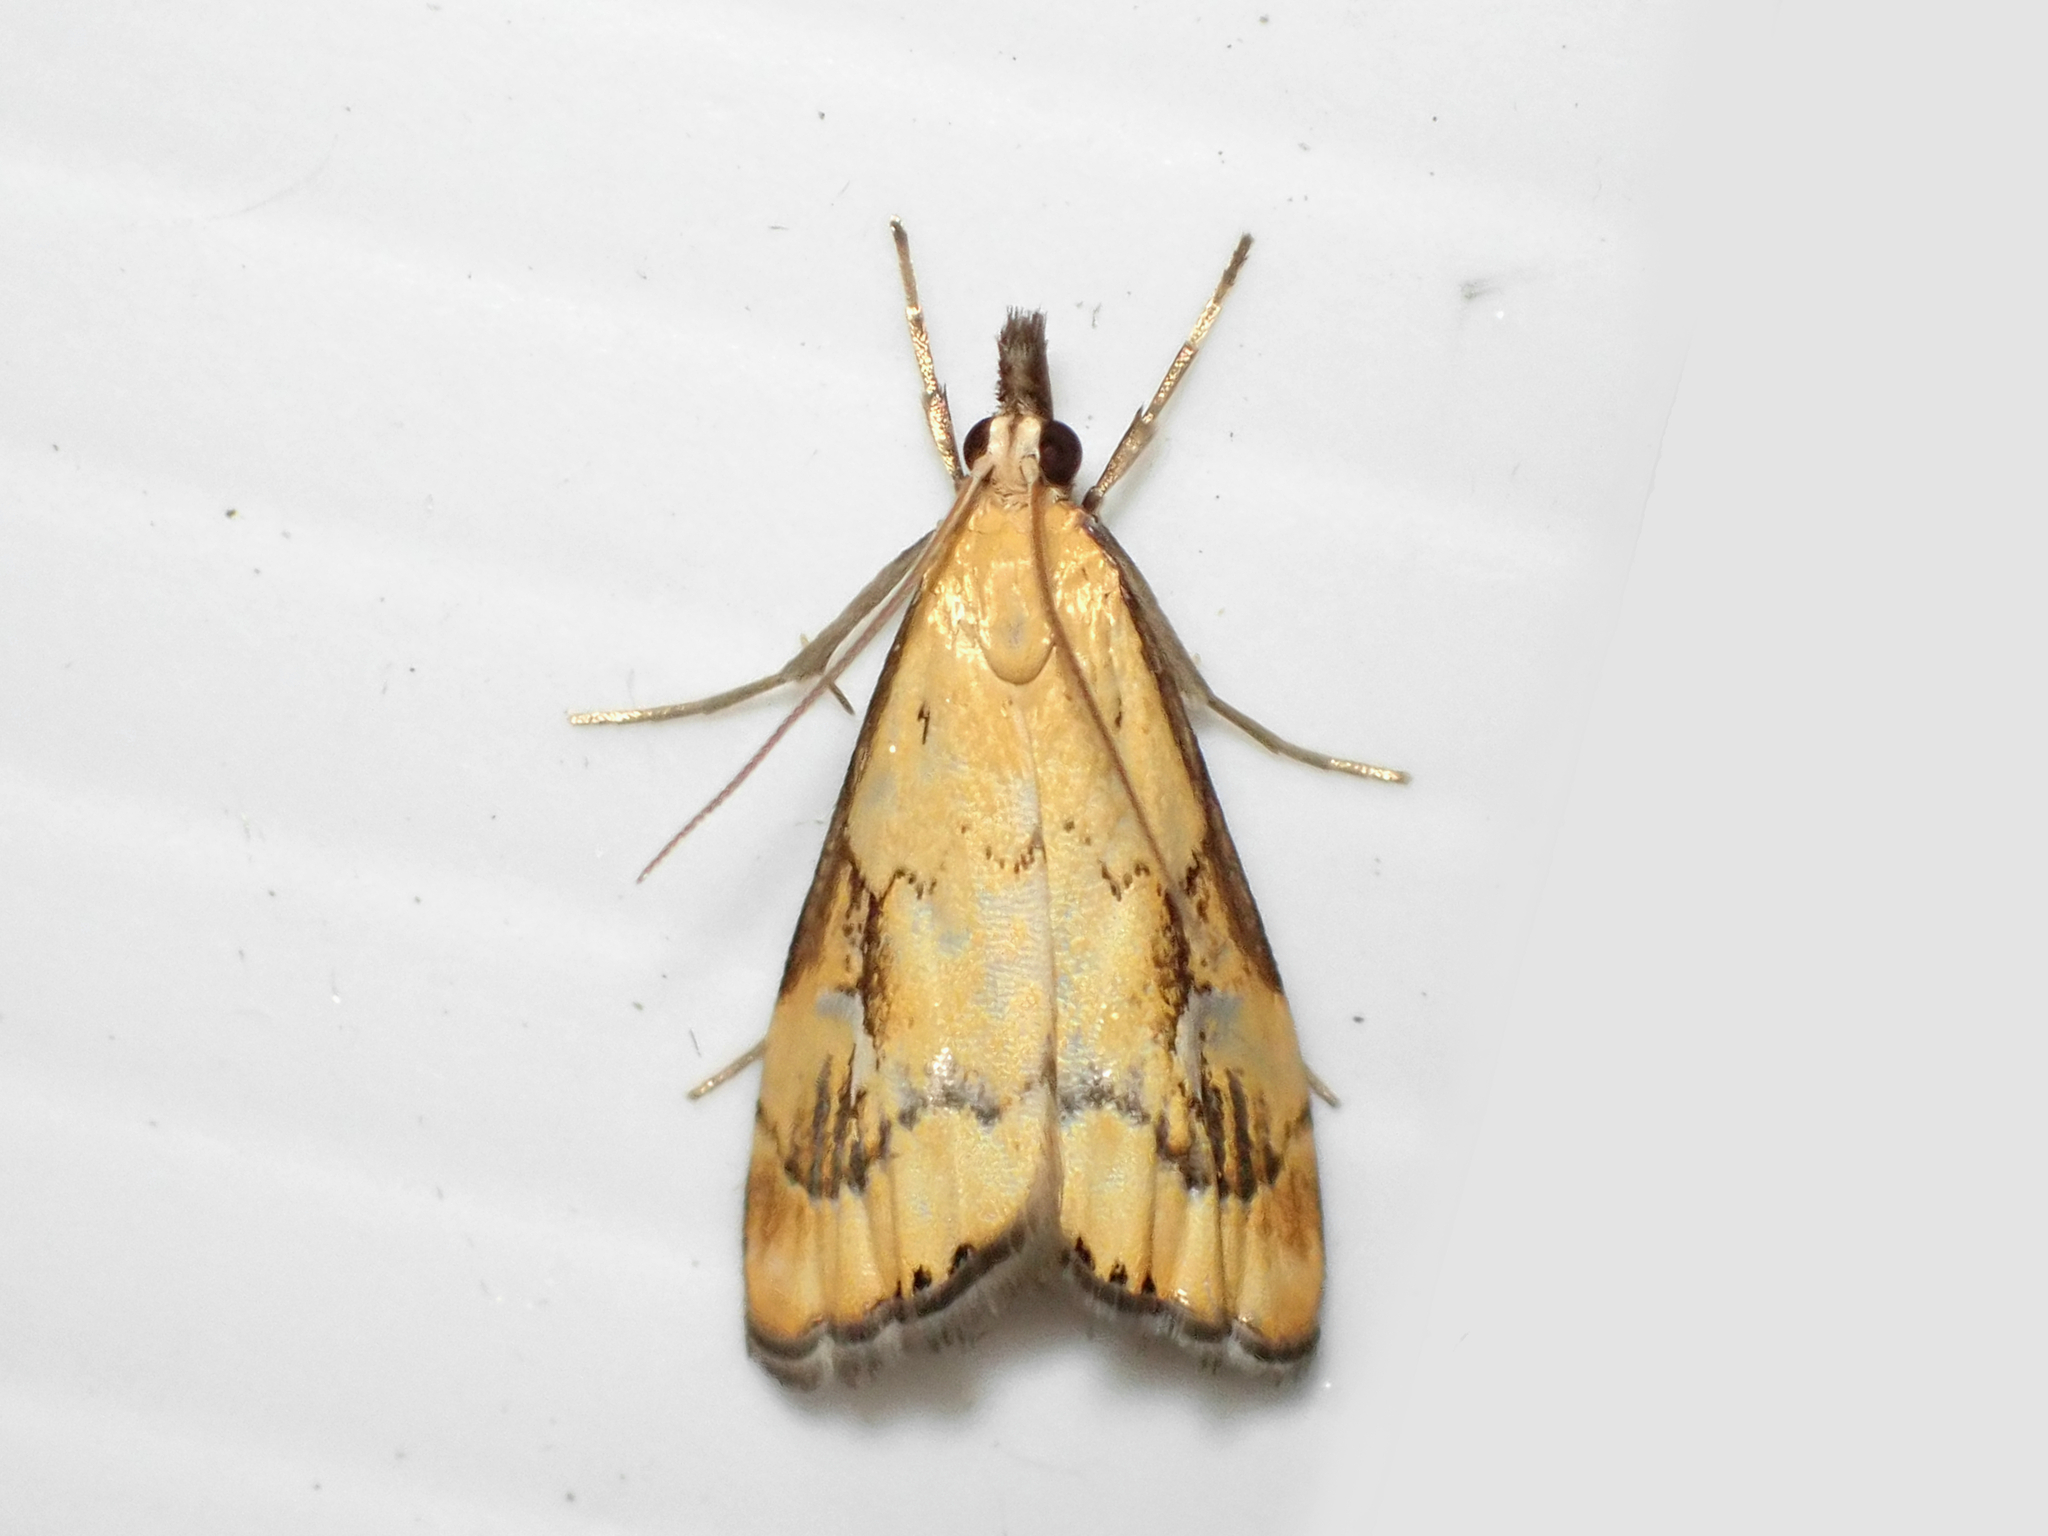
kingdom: Animalia
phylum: Arthropoda
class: Insecta
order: Lepidoptera
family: Crambidae
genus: Glaucocharis
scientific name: Glaucocharis lepidella
